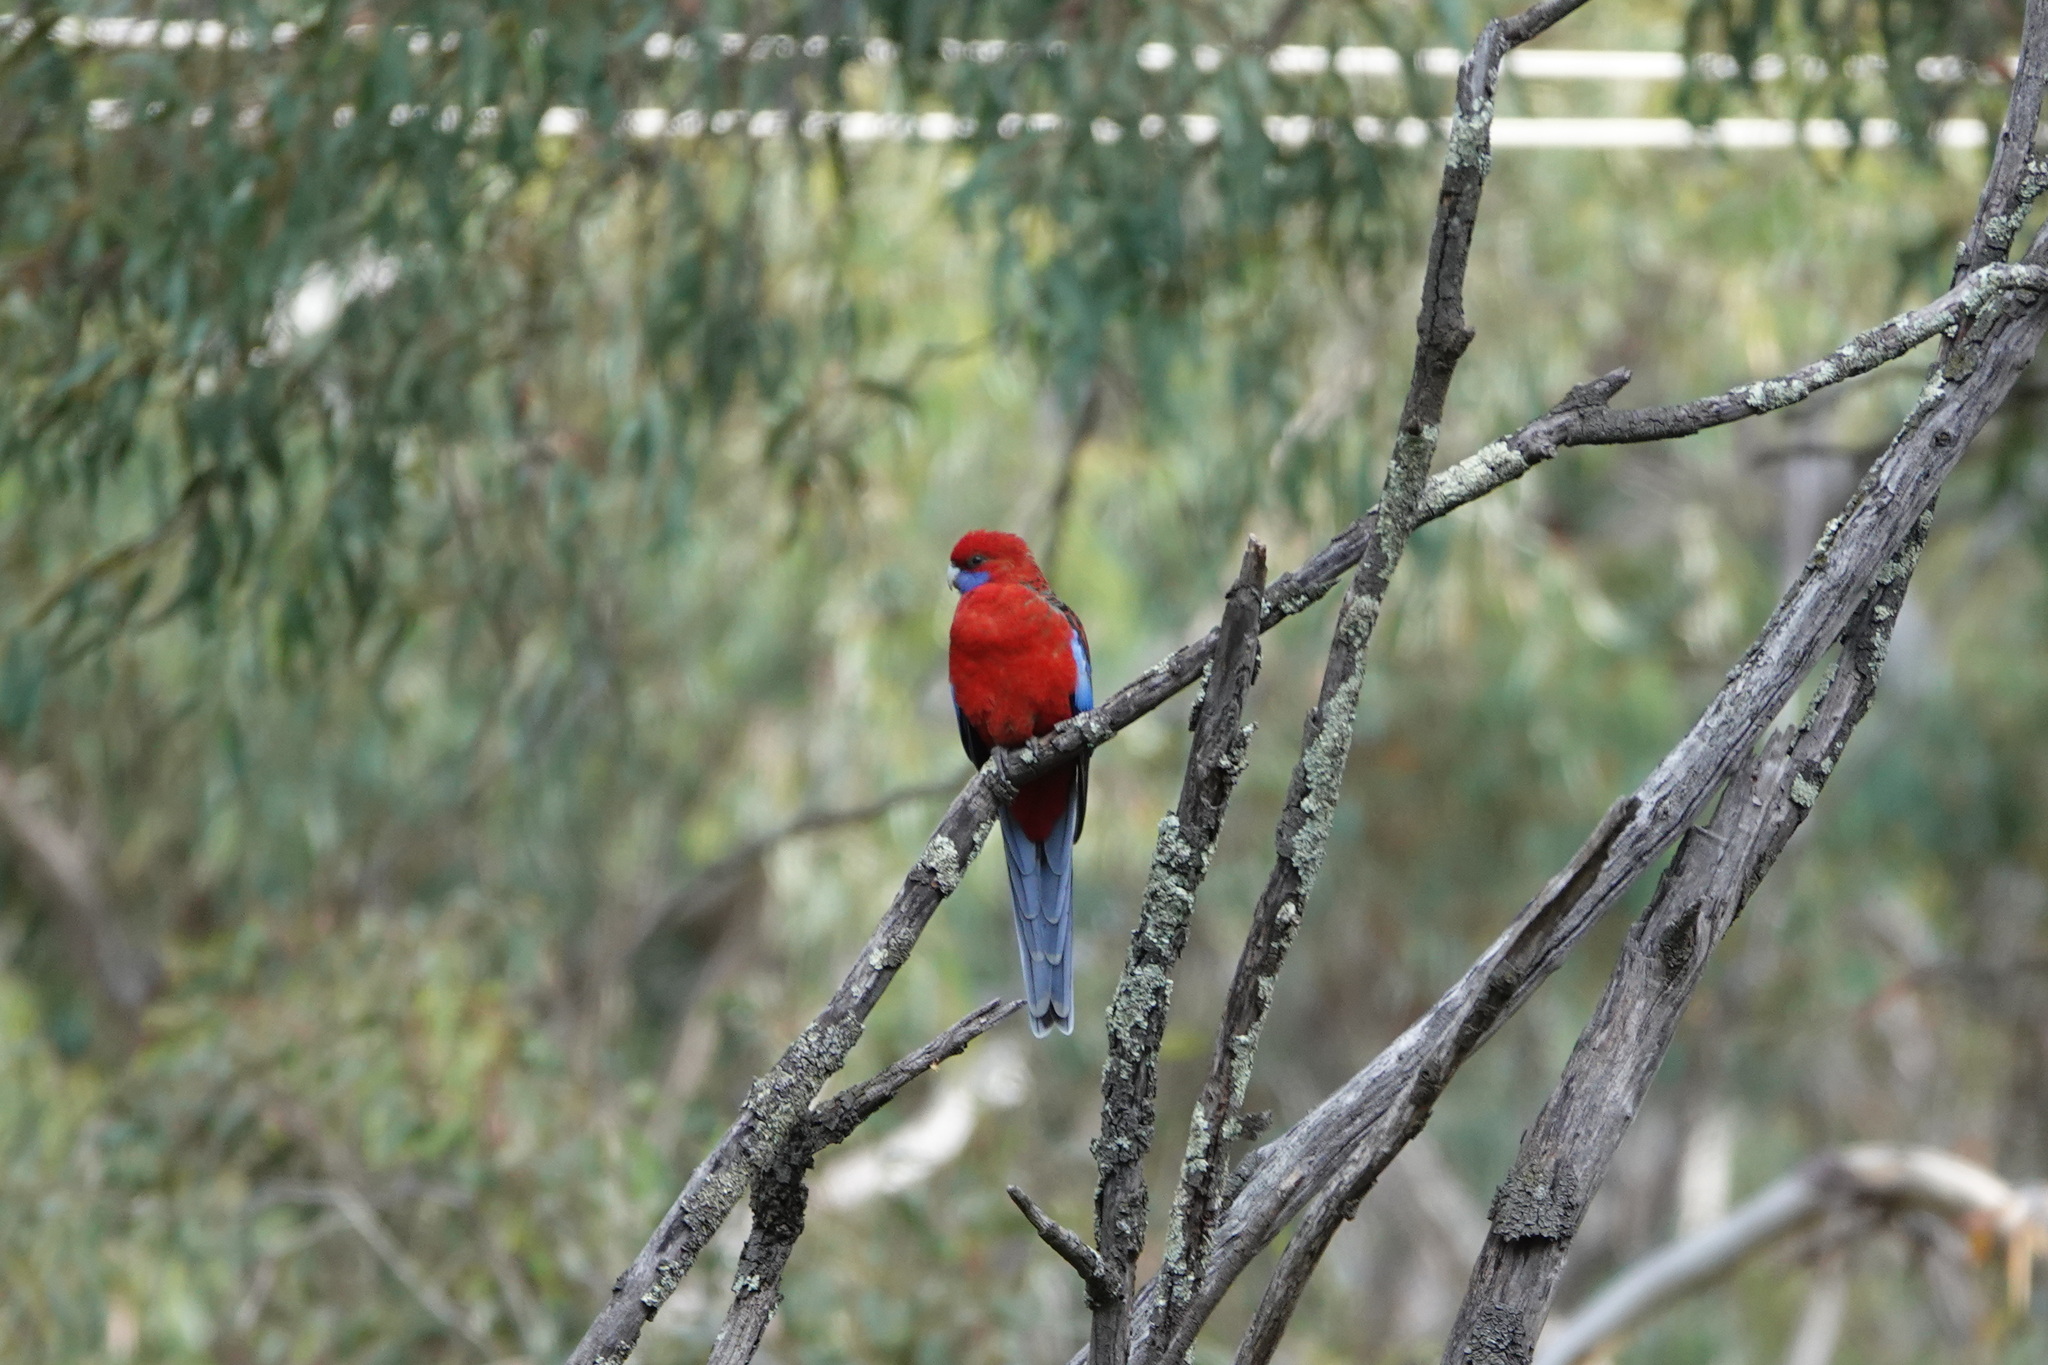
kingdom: Animalia
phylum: Chordata
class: Aves
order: Psittaciformes
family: Psittacidae
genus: Platycercus
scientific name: Platycercus elegans
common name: Crimson rosella
